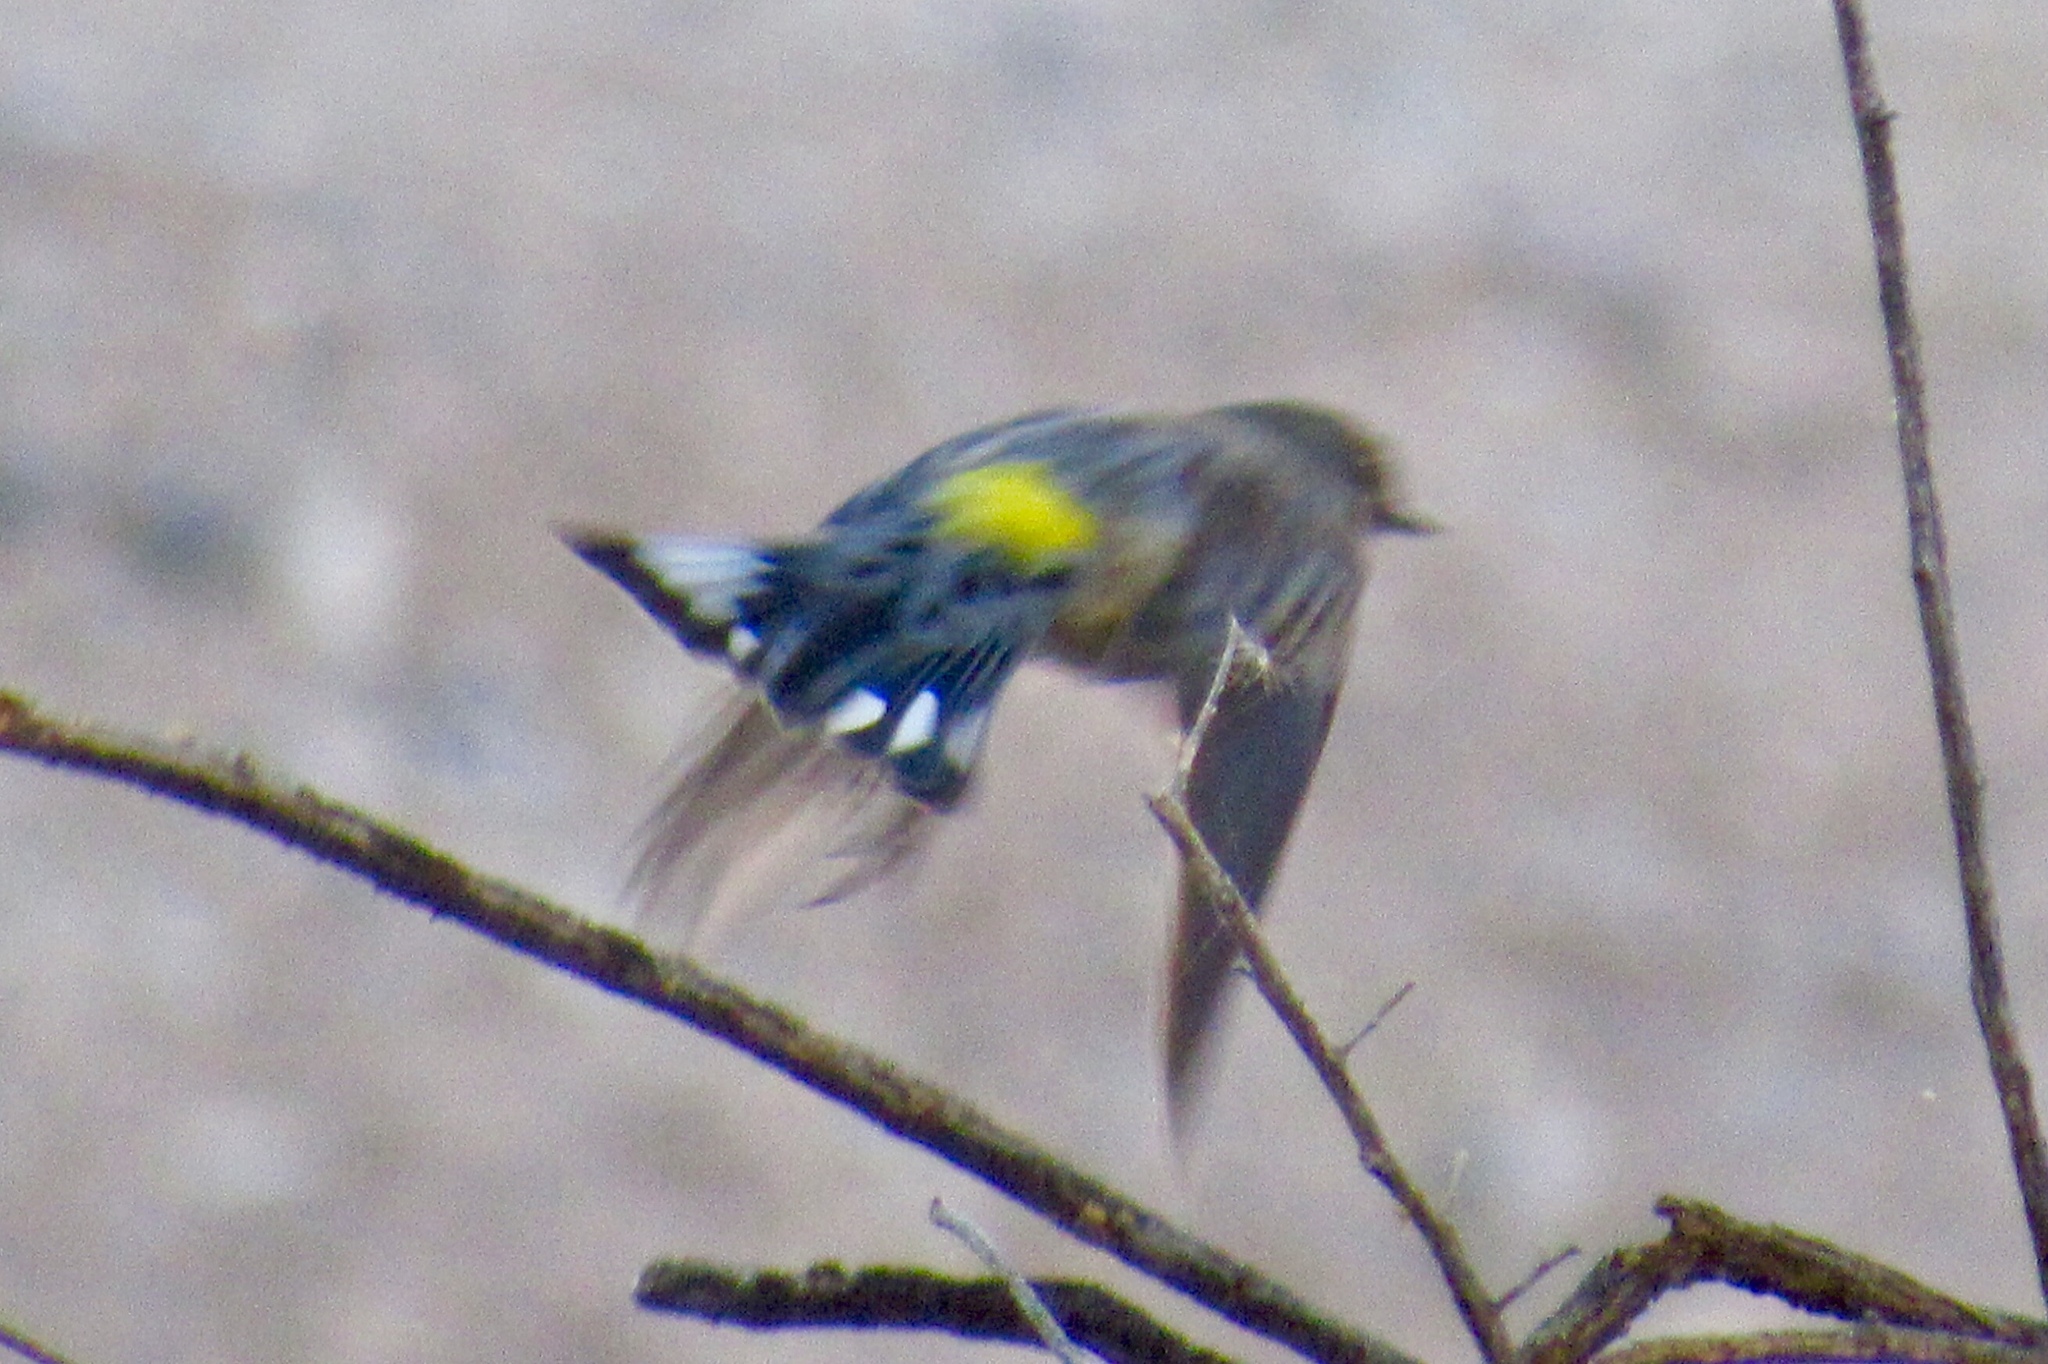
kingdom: Animalia
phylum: Chordata
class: Aves
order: Passeriformes
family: Parulidae
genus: Setophaga
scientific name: Setophaga auduboni
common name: Audubon's warbler
